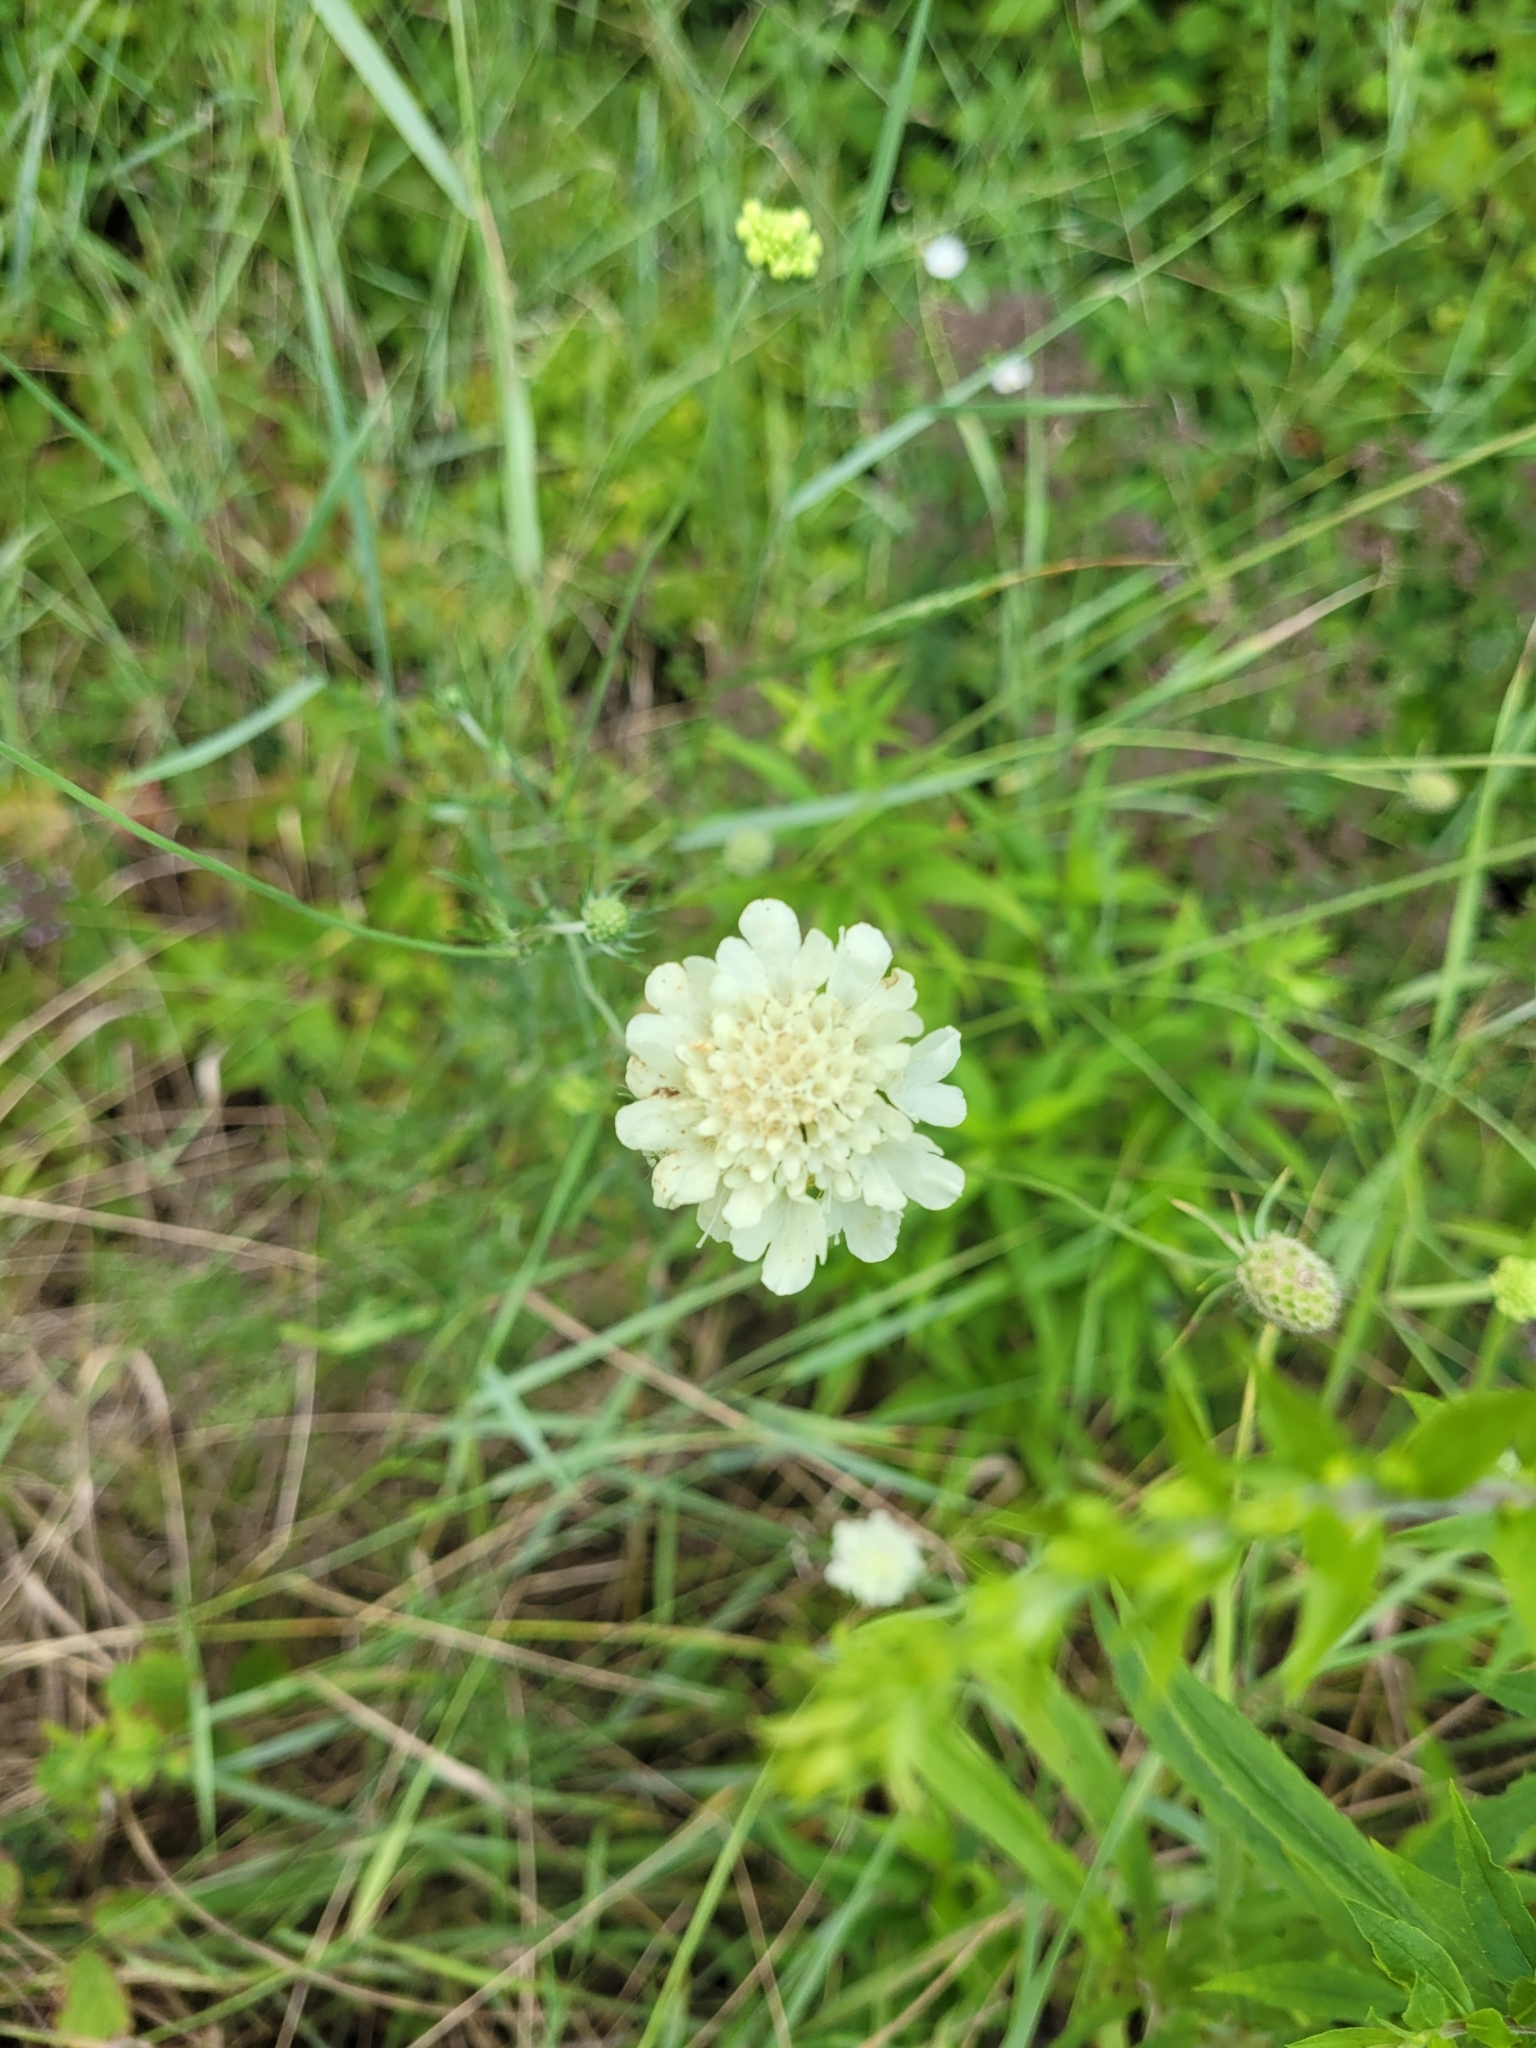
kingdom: Plantae
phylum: Tracheophyta
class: Magnoliopsida
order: Dipsacales
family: Caprifoliaceae
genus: Scabiosa
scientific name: Scabiosa ochroleuca
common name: Cream pincushions
